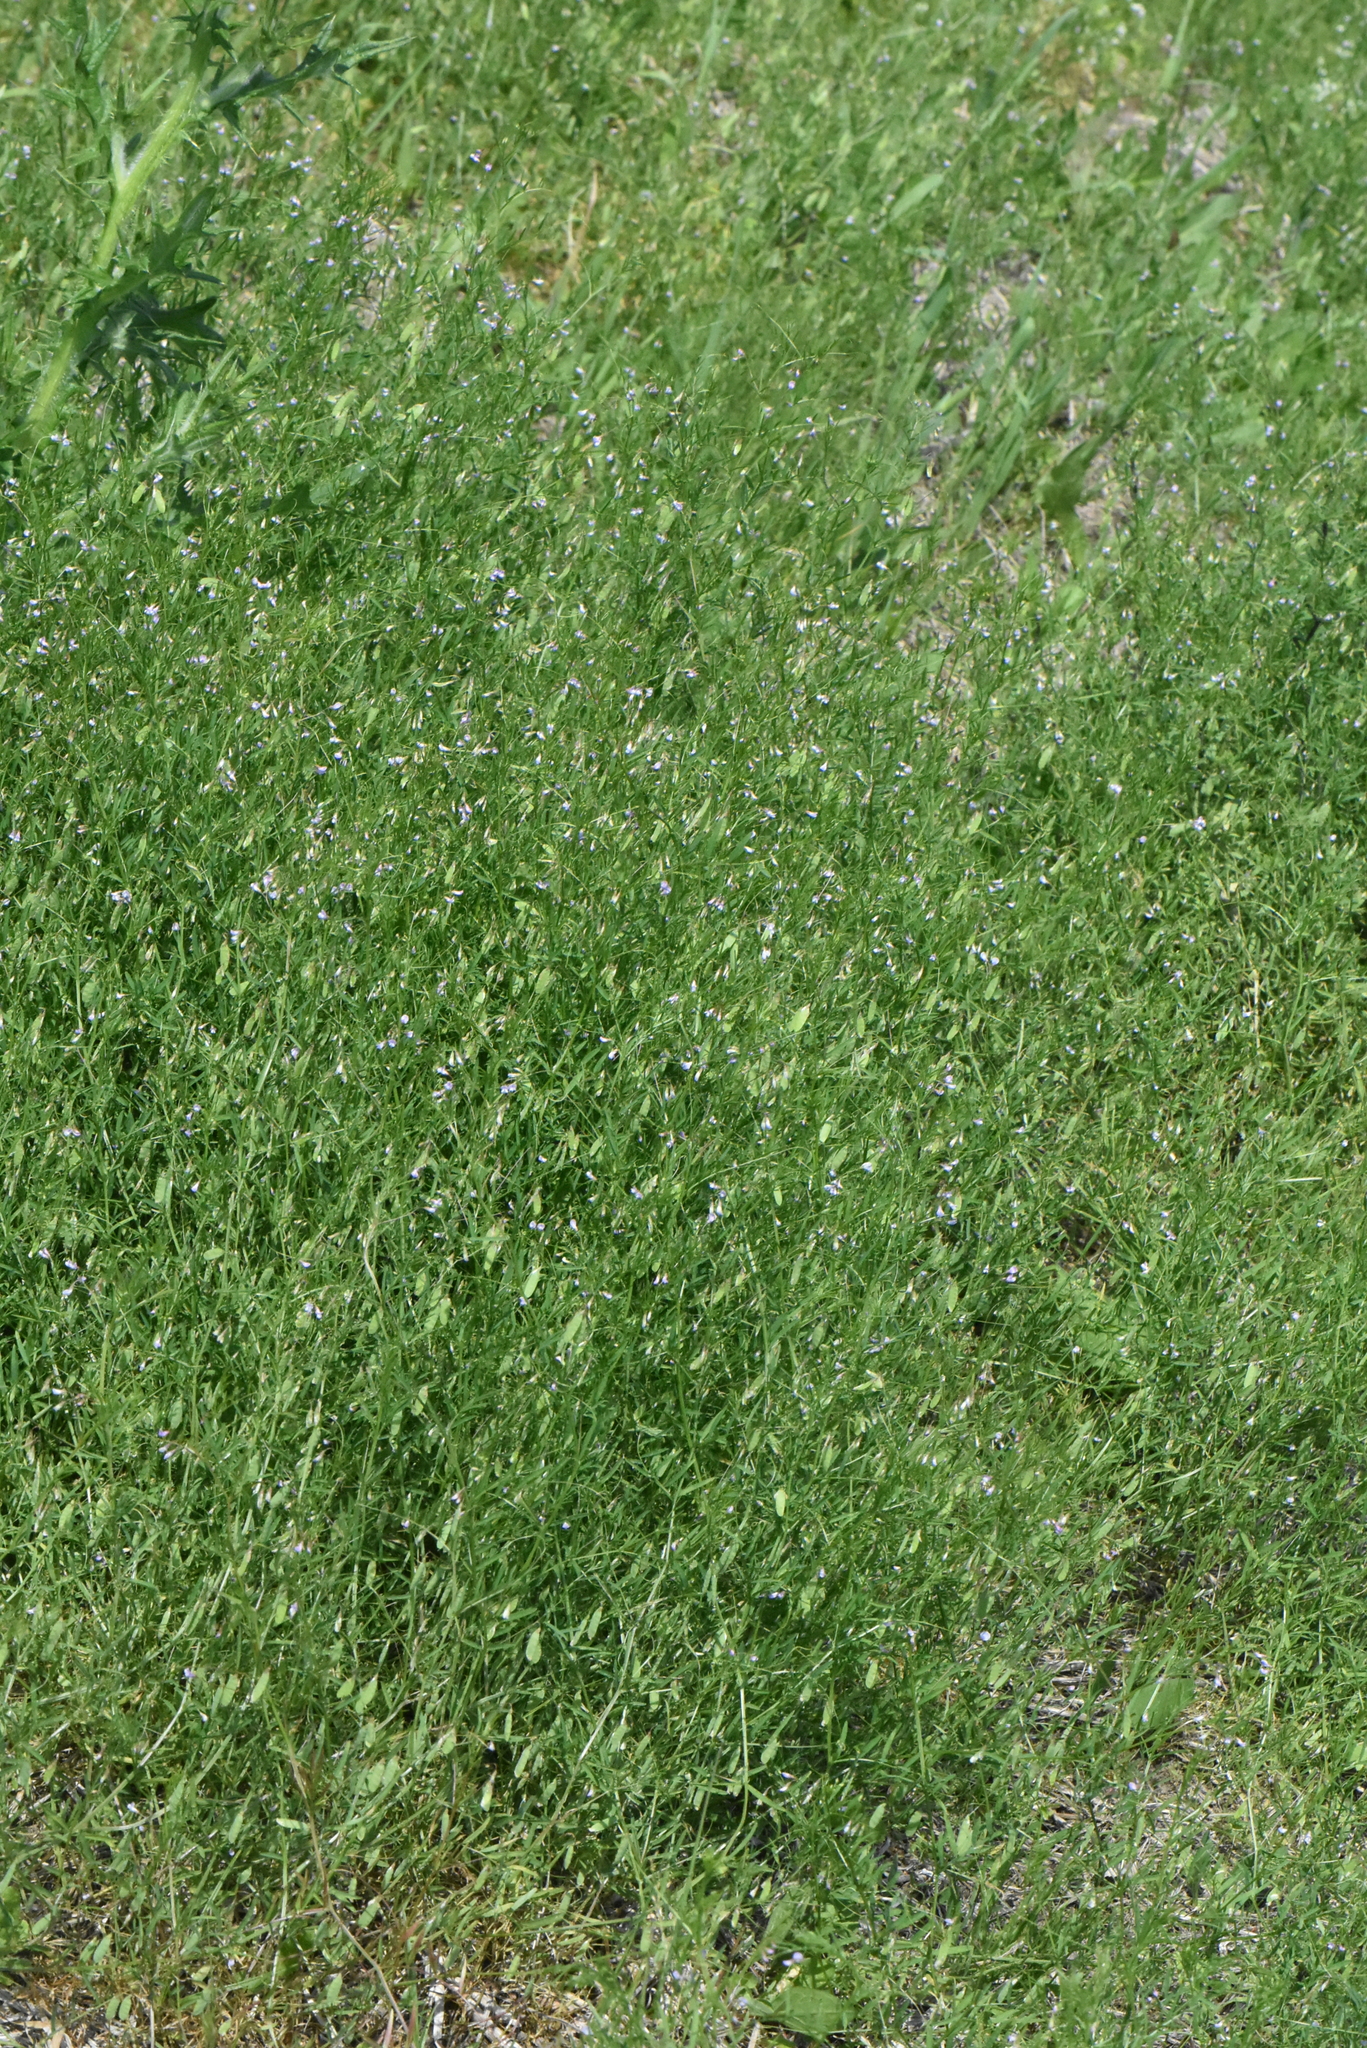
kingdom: Plantae
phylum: Tracheophyta
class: Magnoliopsida
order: Fabales
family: Fabaceae
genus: Vicia
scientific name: Vicia tetrasperma
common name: Smooth tare
